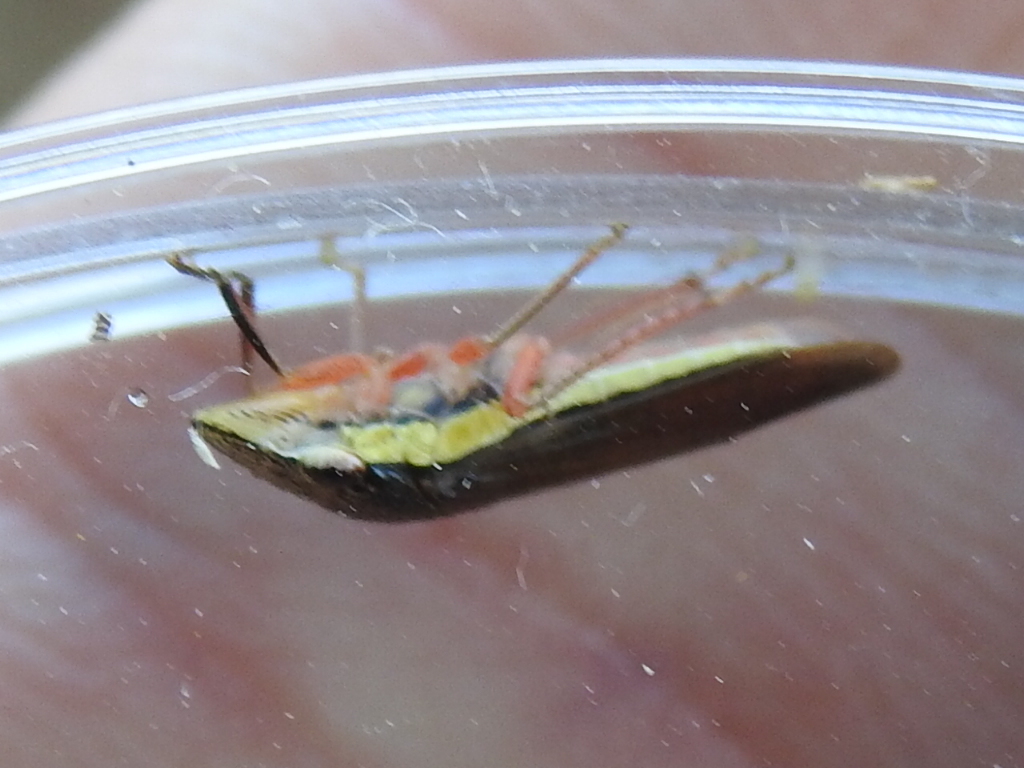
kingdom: Animalia
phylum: Arthropoda
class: Insecta
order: Hemiptera
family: Cicadellidae
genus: Homalodisca
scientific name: Homalodisca insolita
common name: Johnson grass sharpshooter
